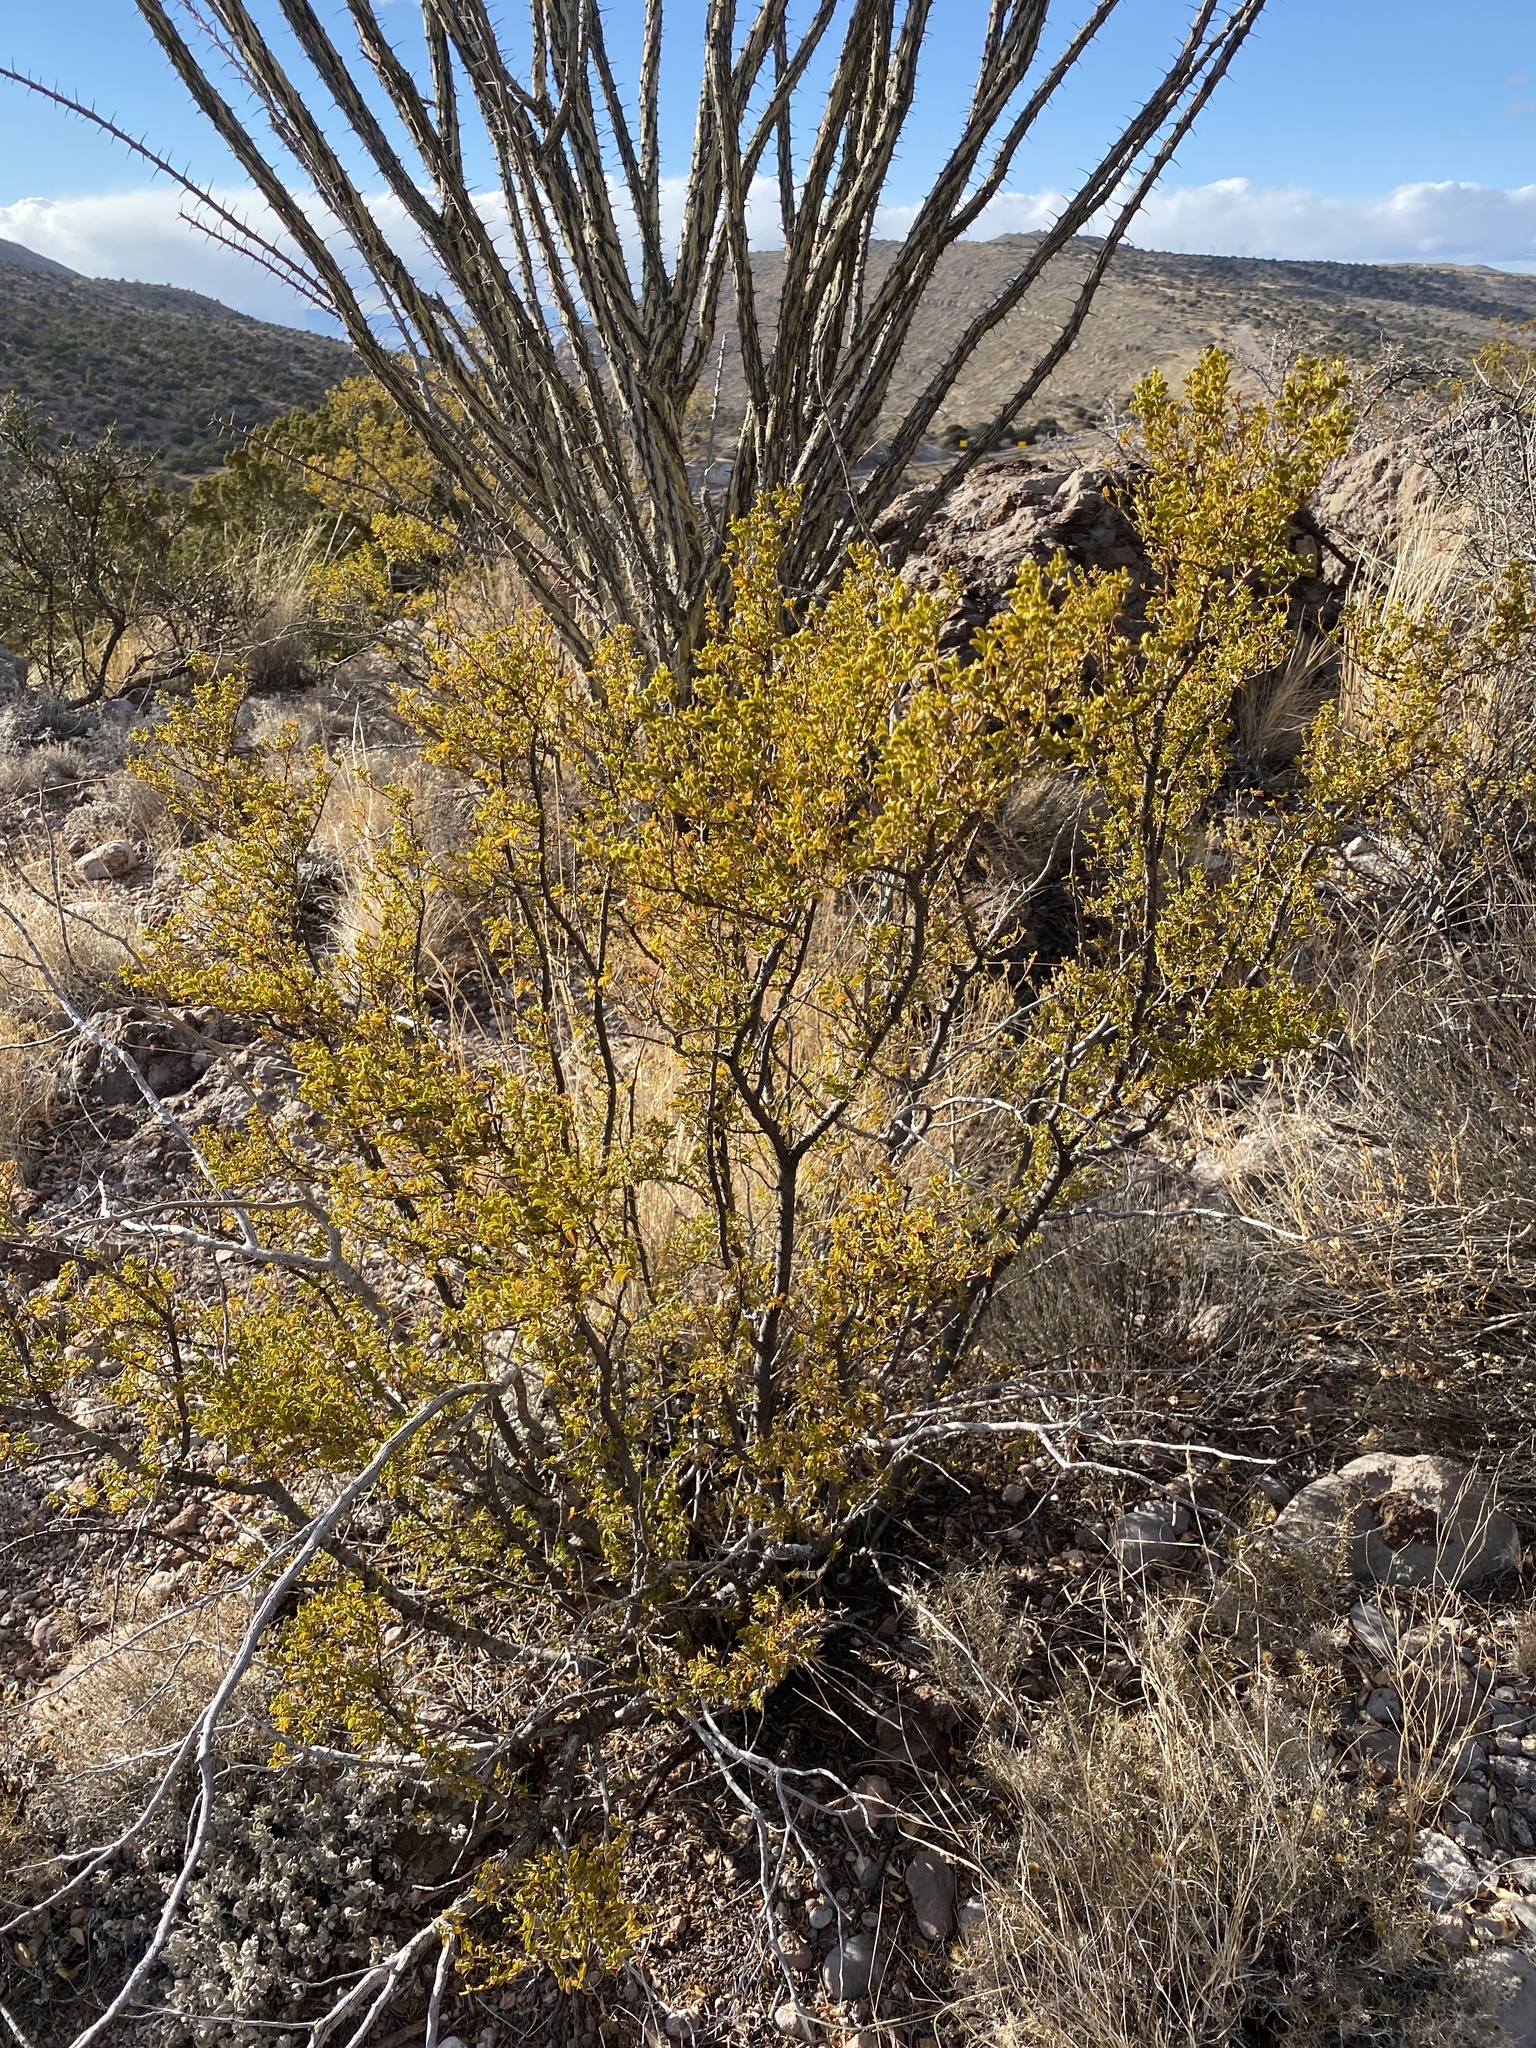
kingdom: Plantae
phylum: Tracheophyta
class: Magnoliopsida
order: Zygophyllales
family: Zygophyllaceae
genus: Larrea
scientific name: Larrea tridentata
